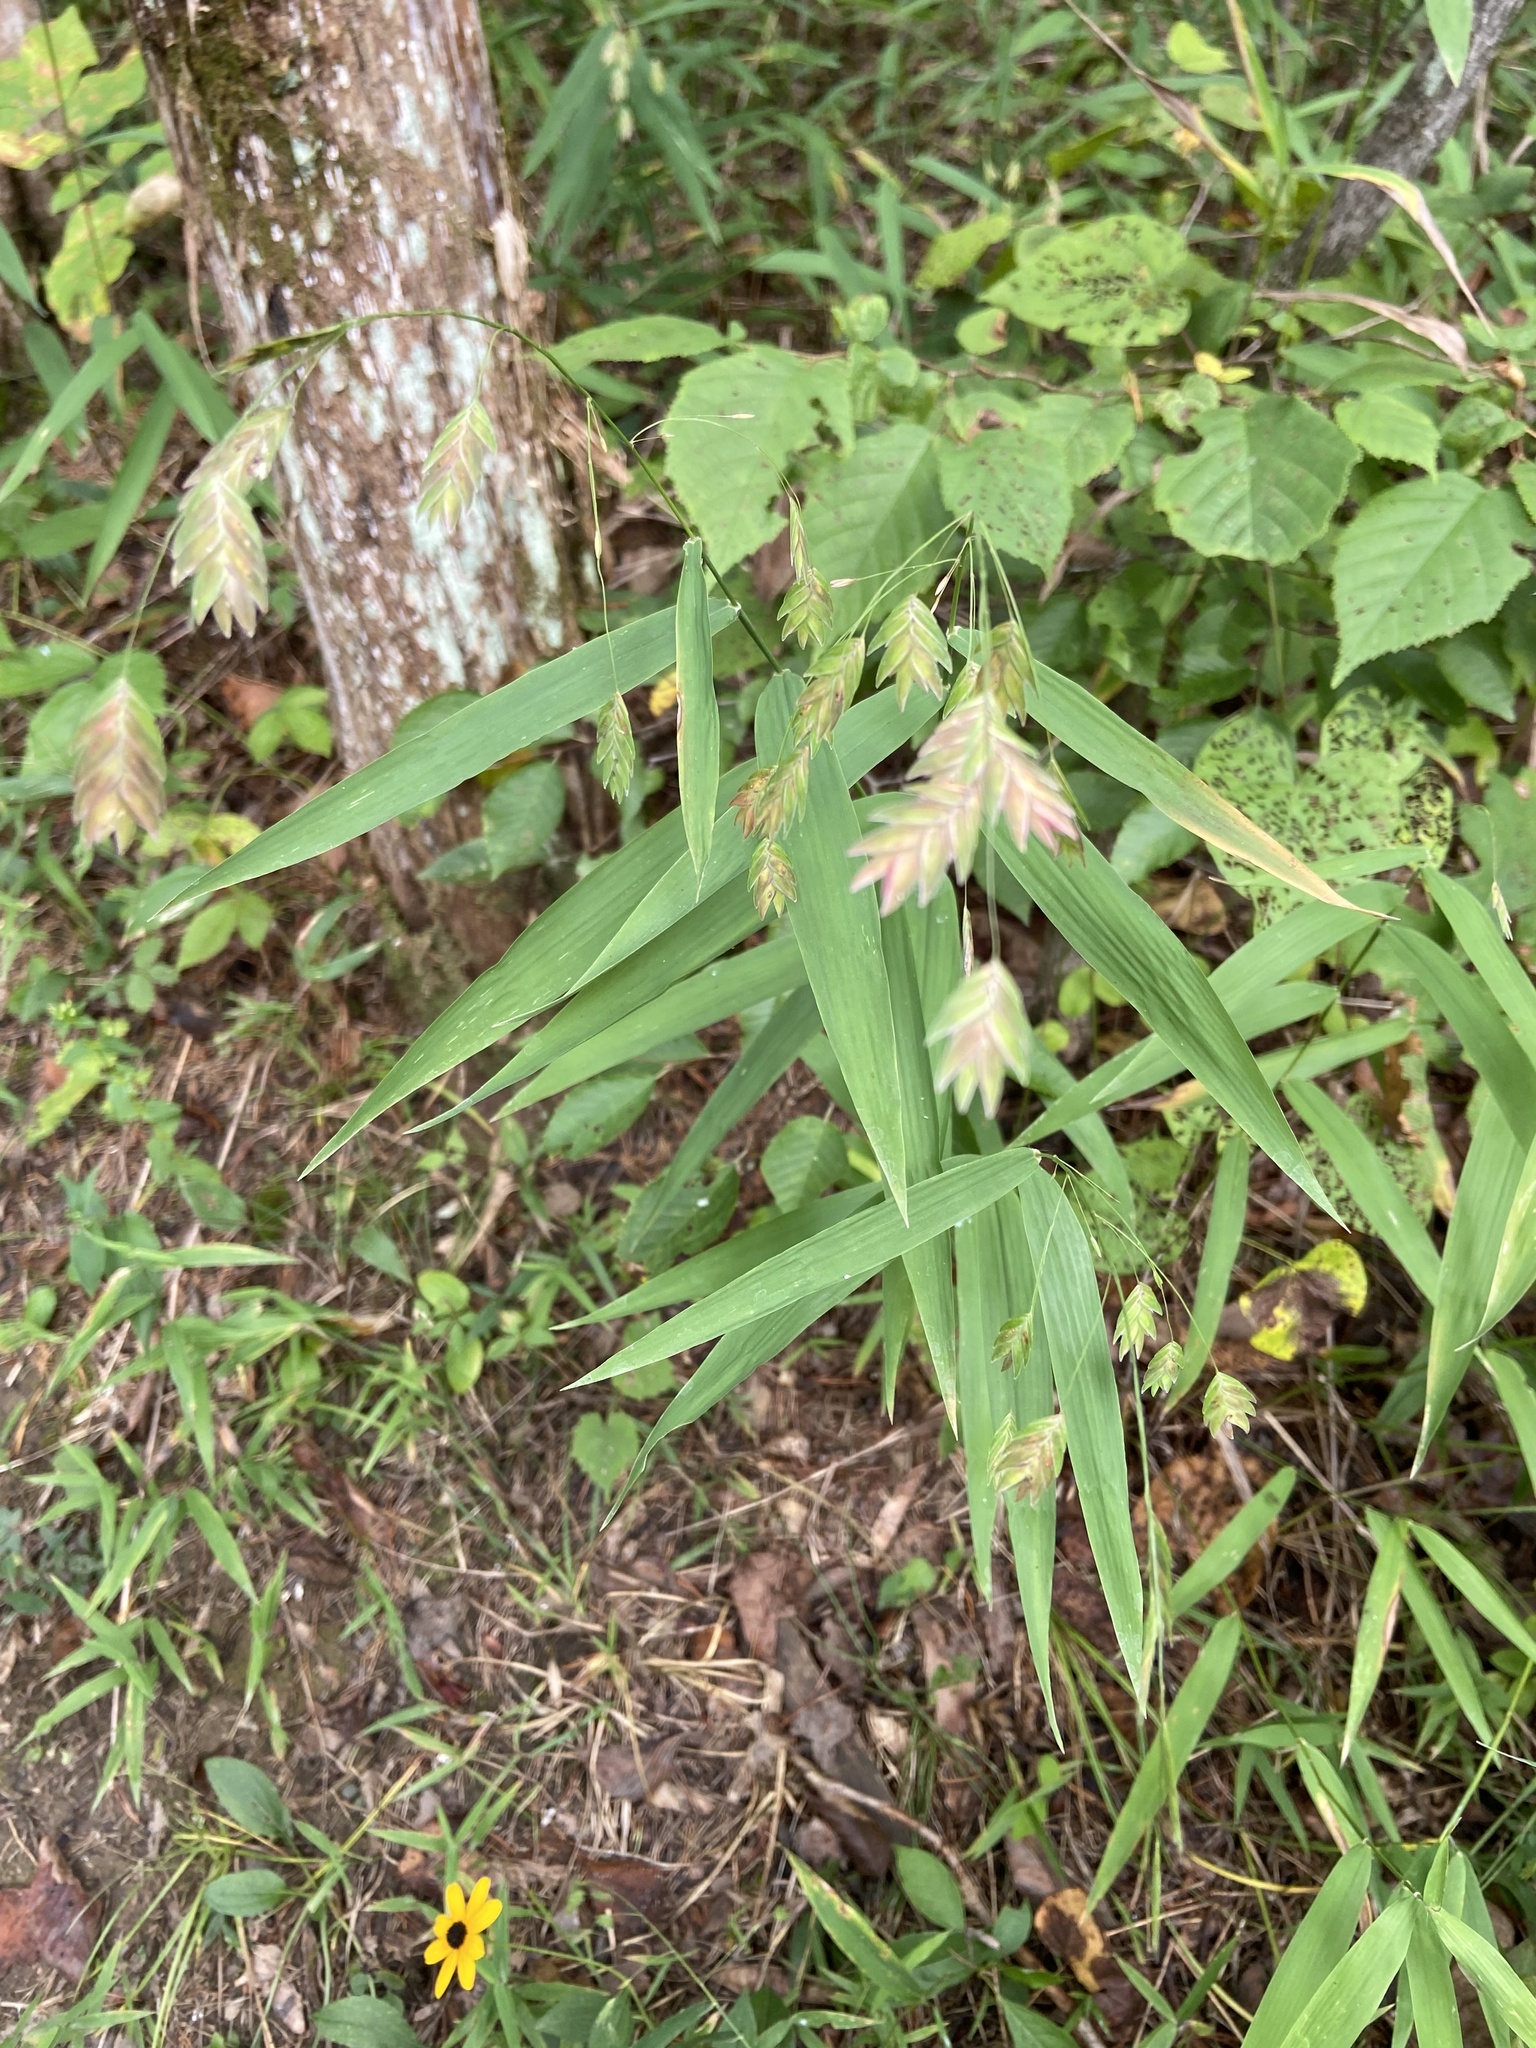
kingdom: Plantae
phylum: Tracheophyta
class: Liliopsida
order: Poales
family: Poaceae
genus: Chasmanthium
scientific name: Chasmanthium latifolium
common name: Broad-leaved chasmanthium
